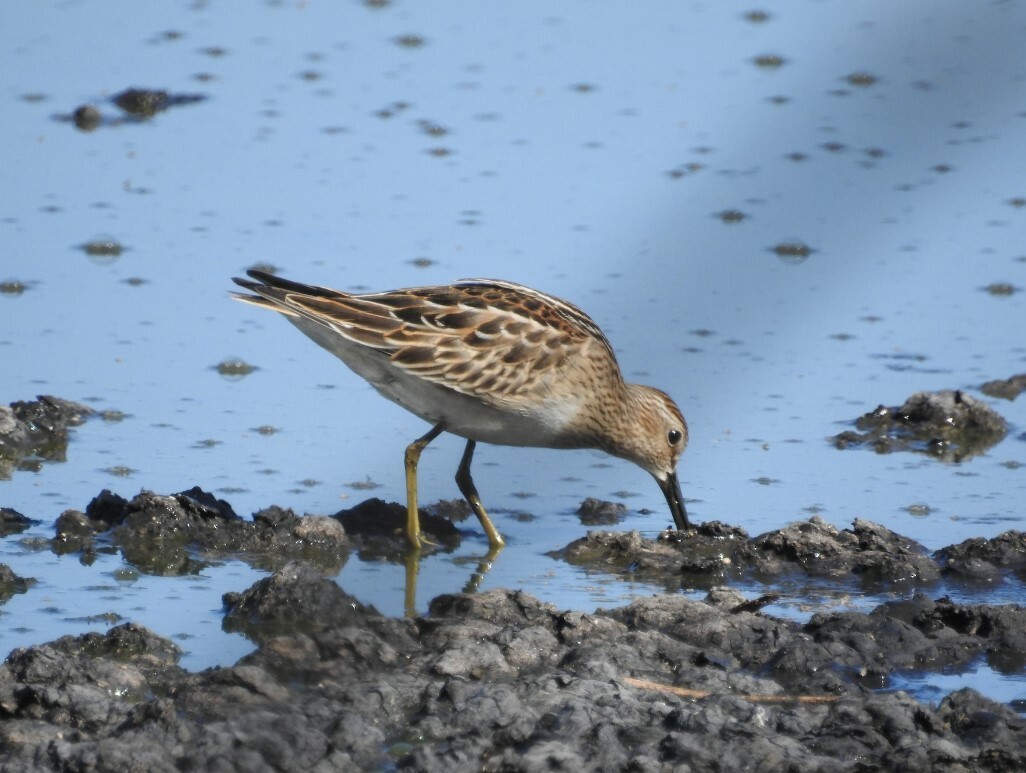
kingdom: Animalia
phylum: Chordata
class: Aves
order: Charadriiformes
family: Scolopacidae
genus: Calidris
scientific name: Calidris melanotos
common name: Pectoral sandpiper
